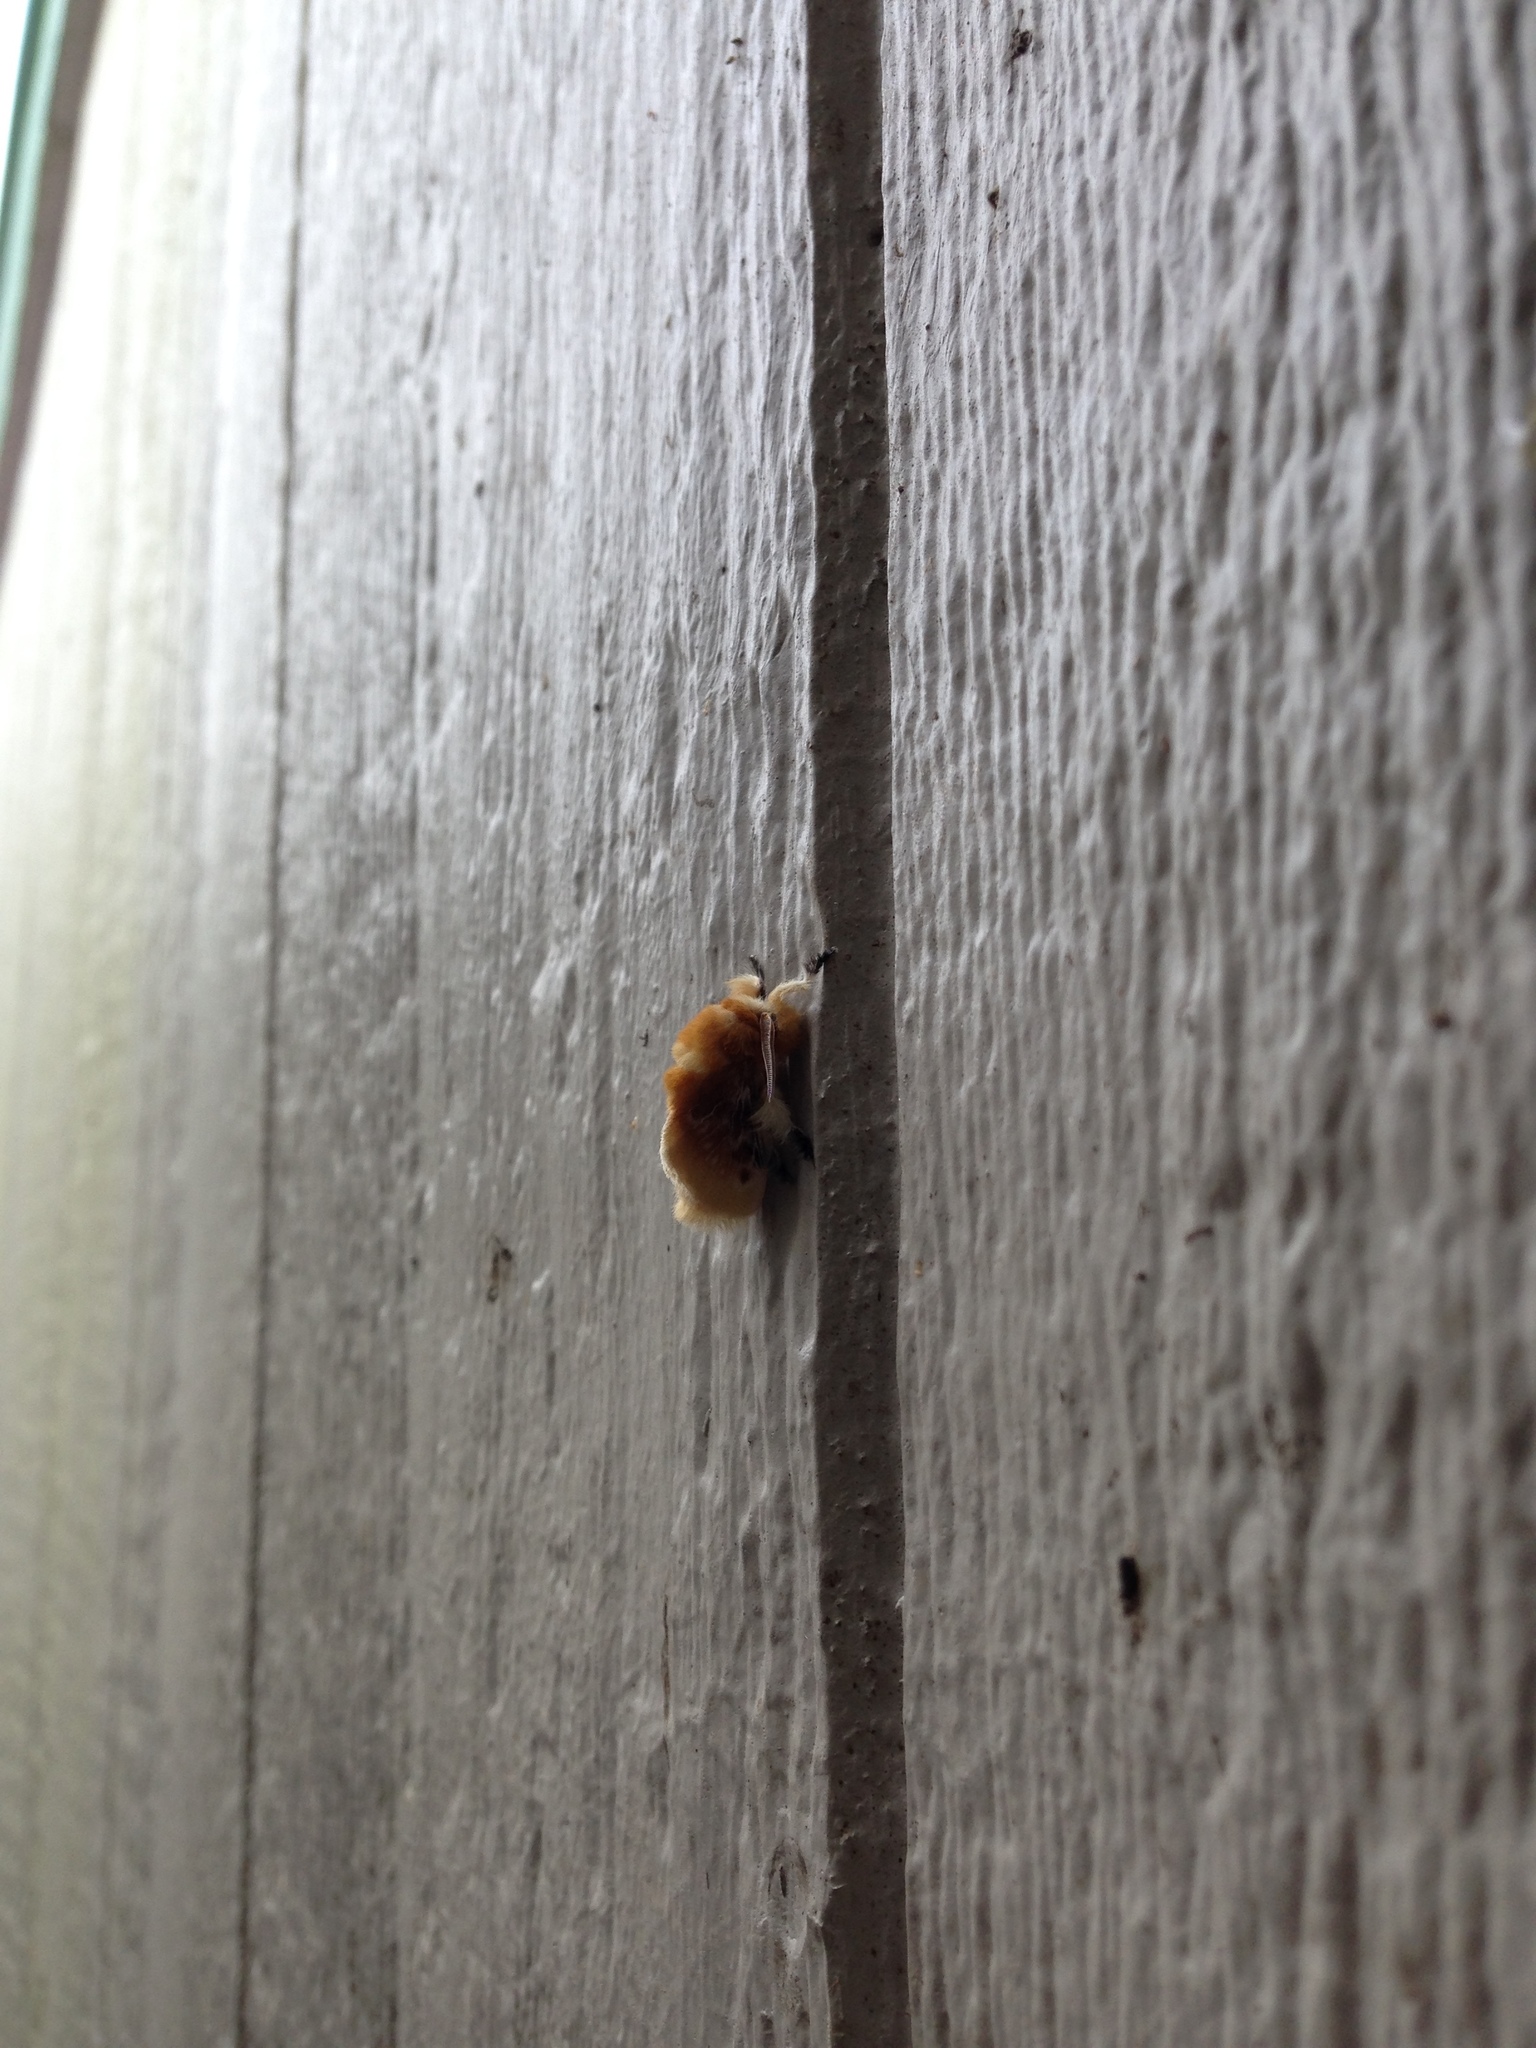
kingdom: Animalia
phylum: Arthropoda
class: Insecta
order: Lepidoptera
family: Megalopygidae
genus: Megalopyge
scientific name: Megalopyge opercularis
